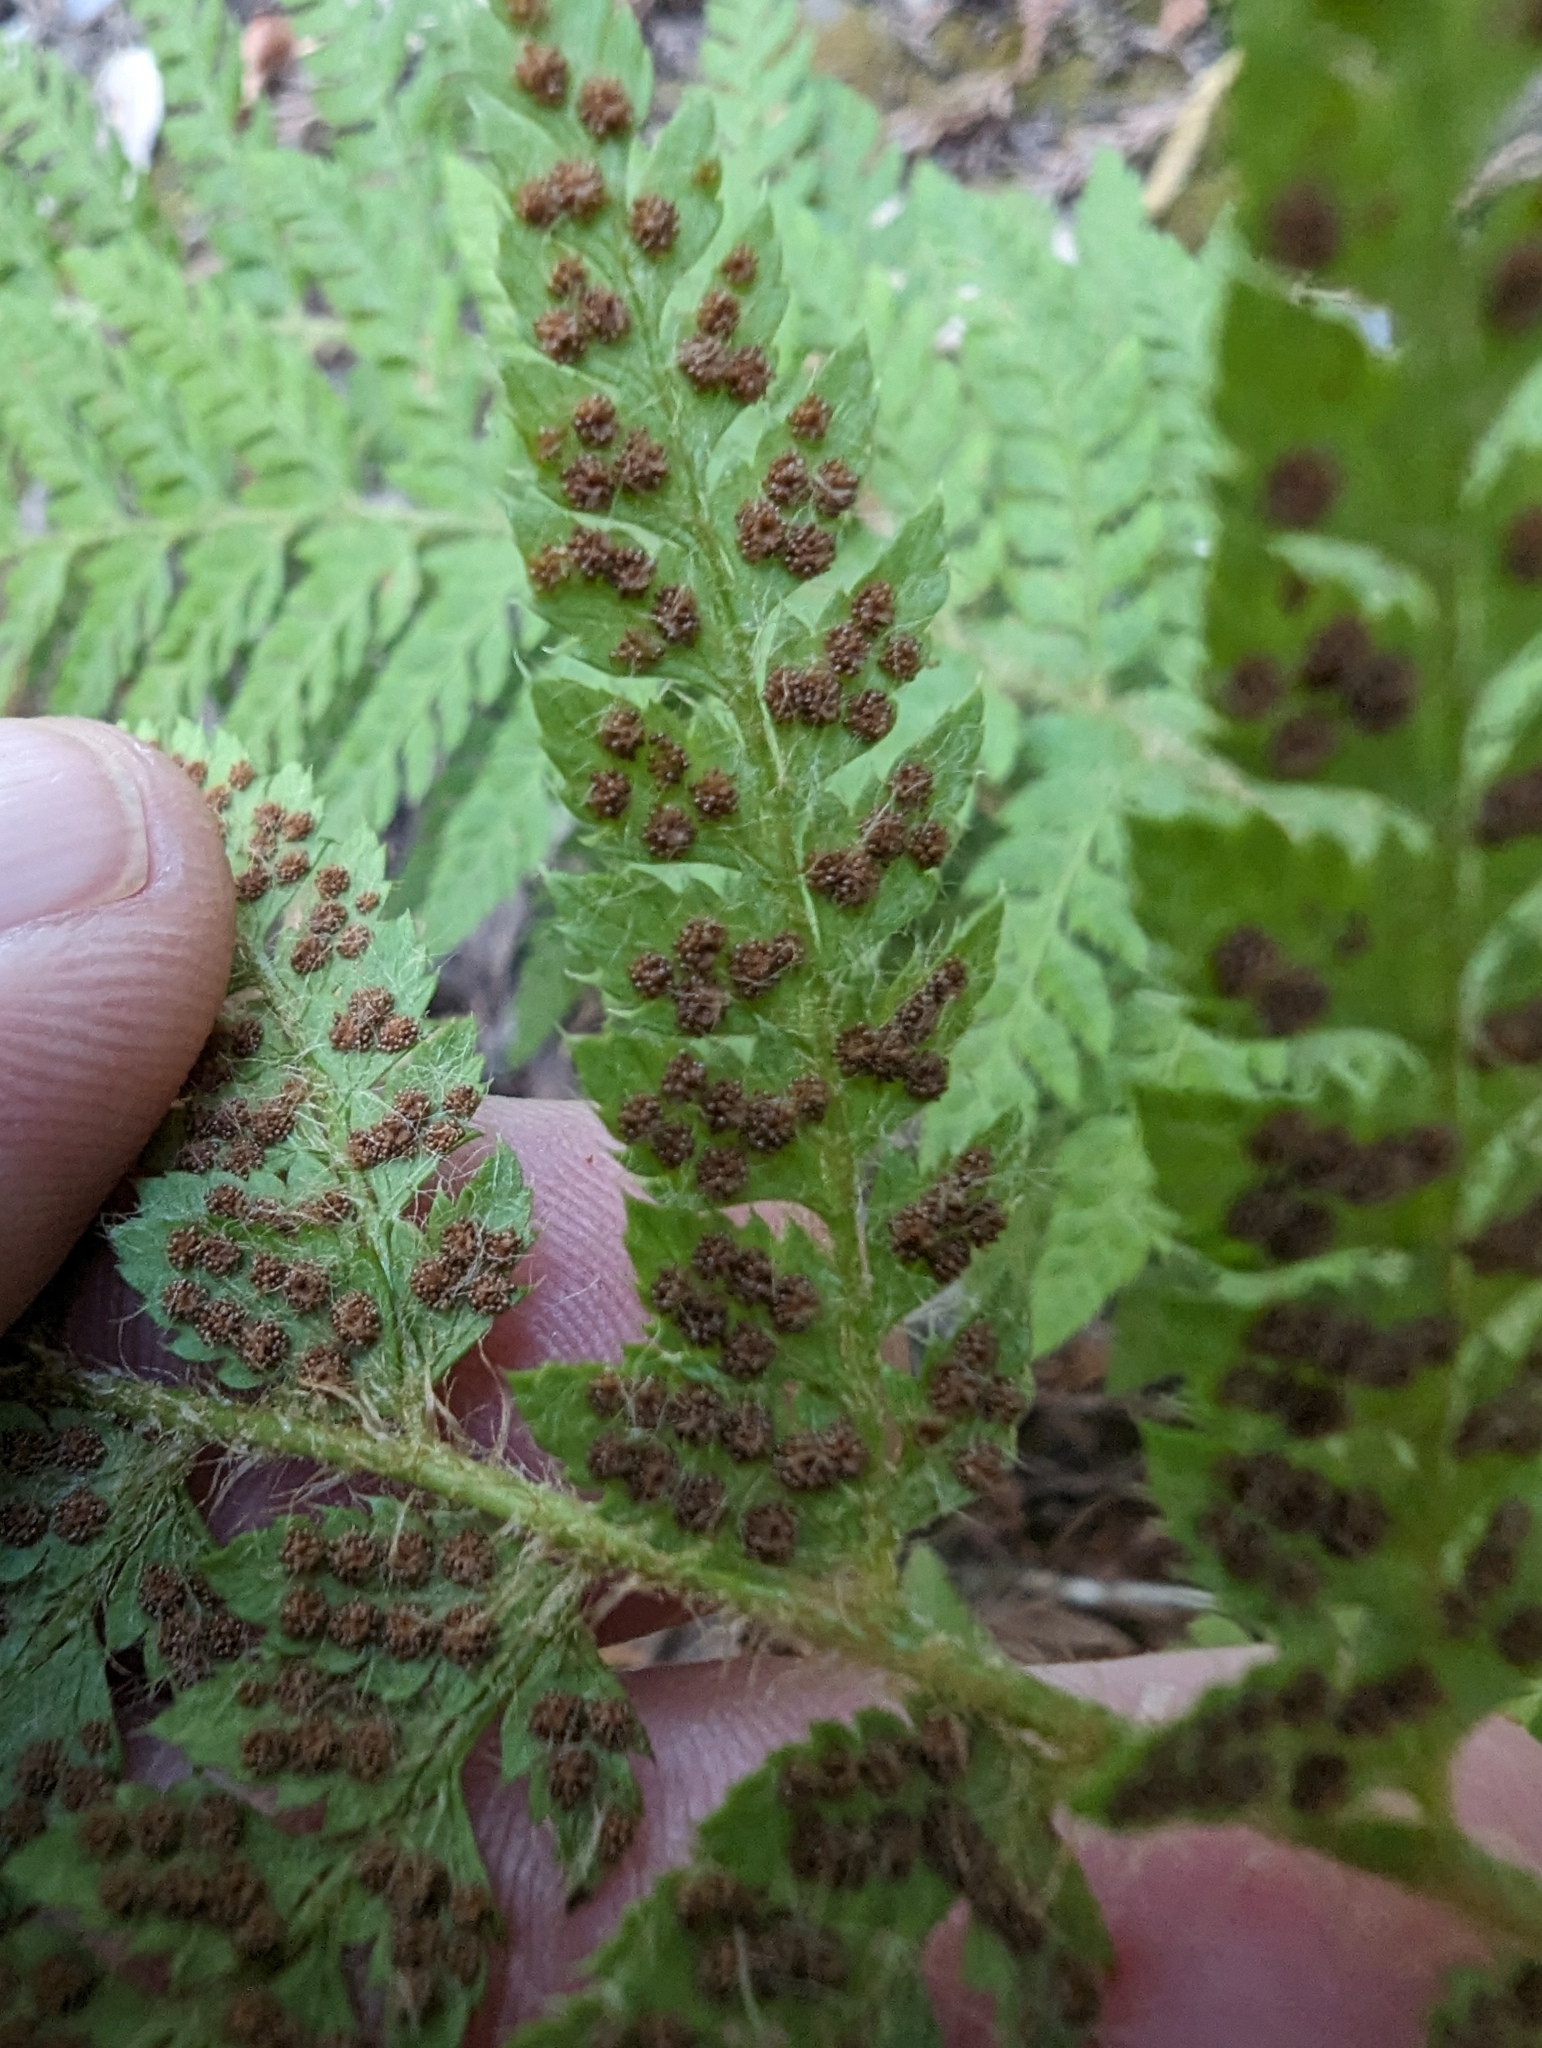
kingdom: Plantae
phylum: Tracheophyta
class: Polypodiopsida
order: Polypodiales
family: Dryopteridaceae
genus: Polystichum
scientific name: Polystichum dudleyi
